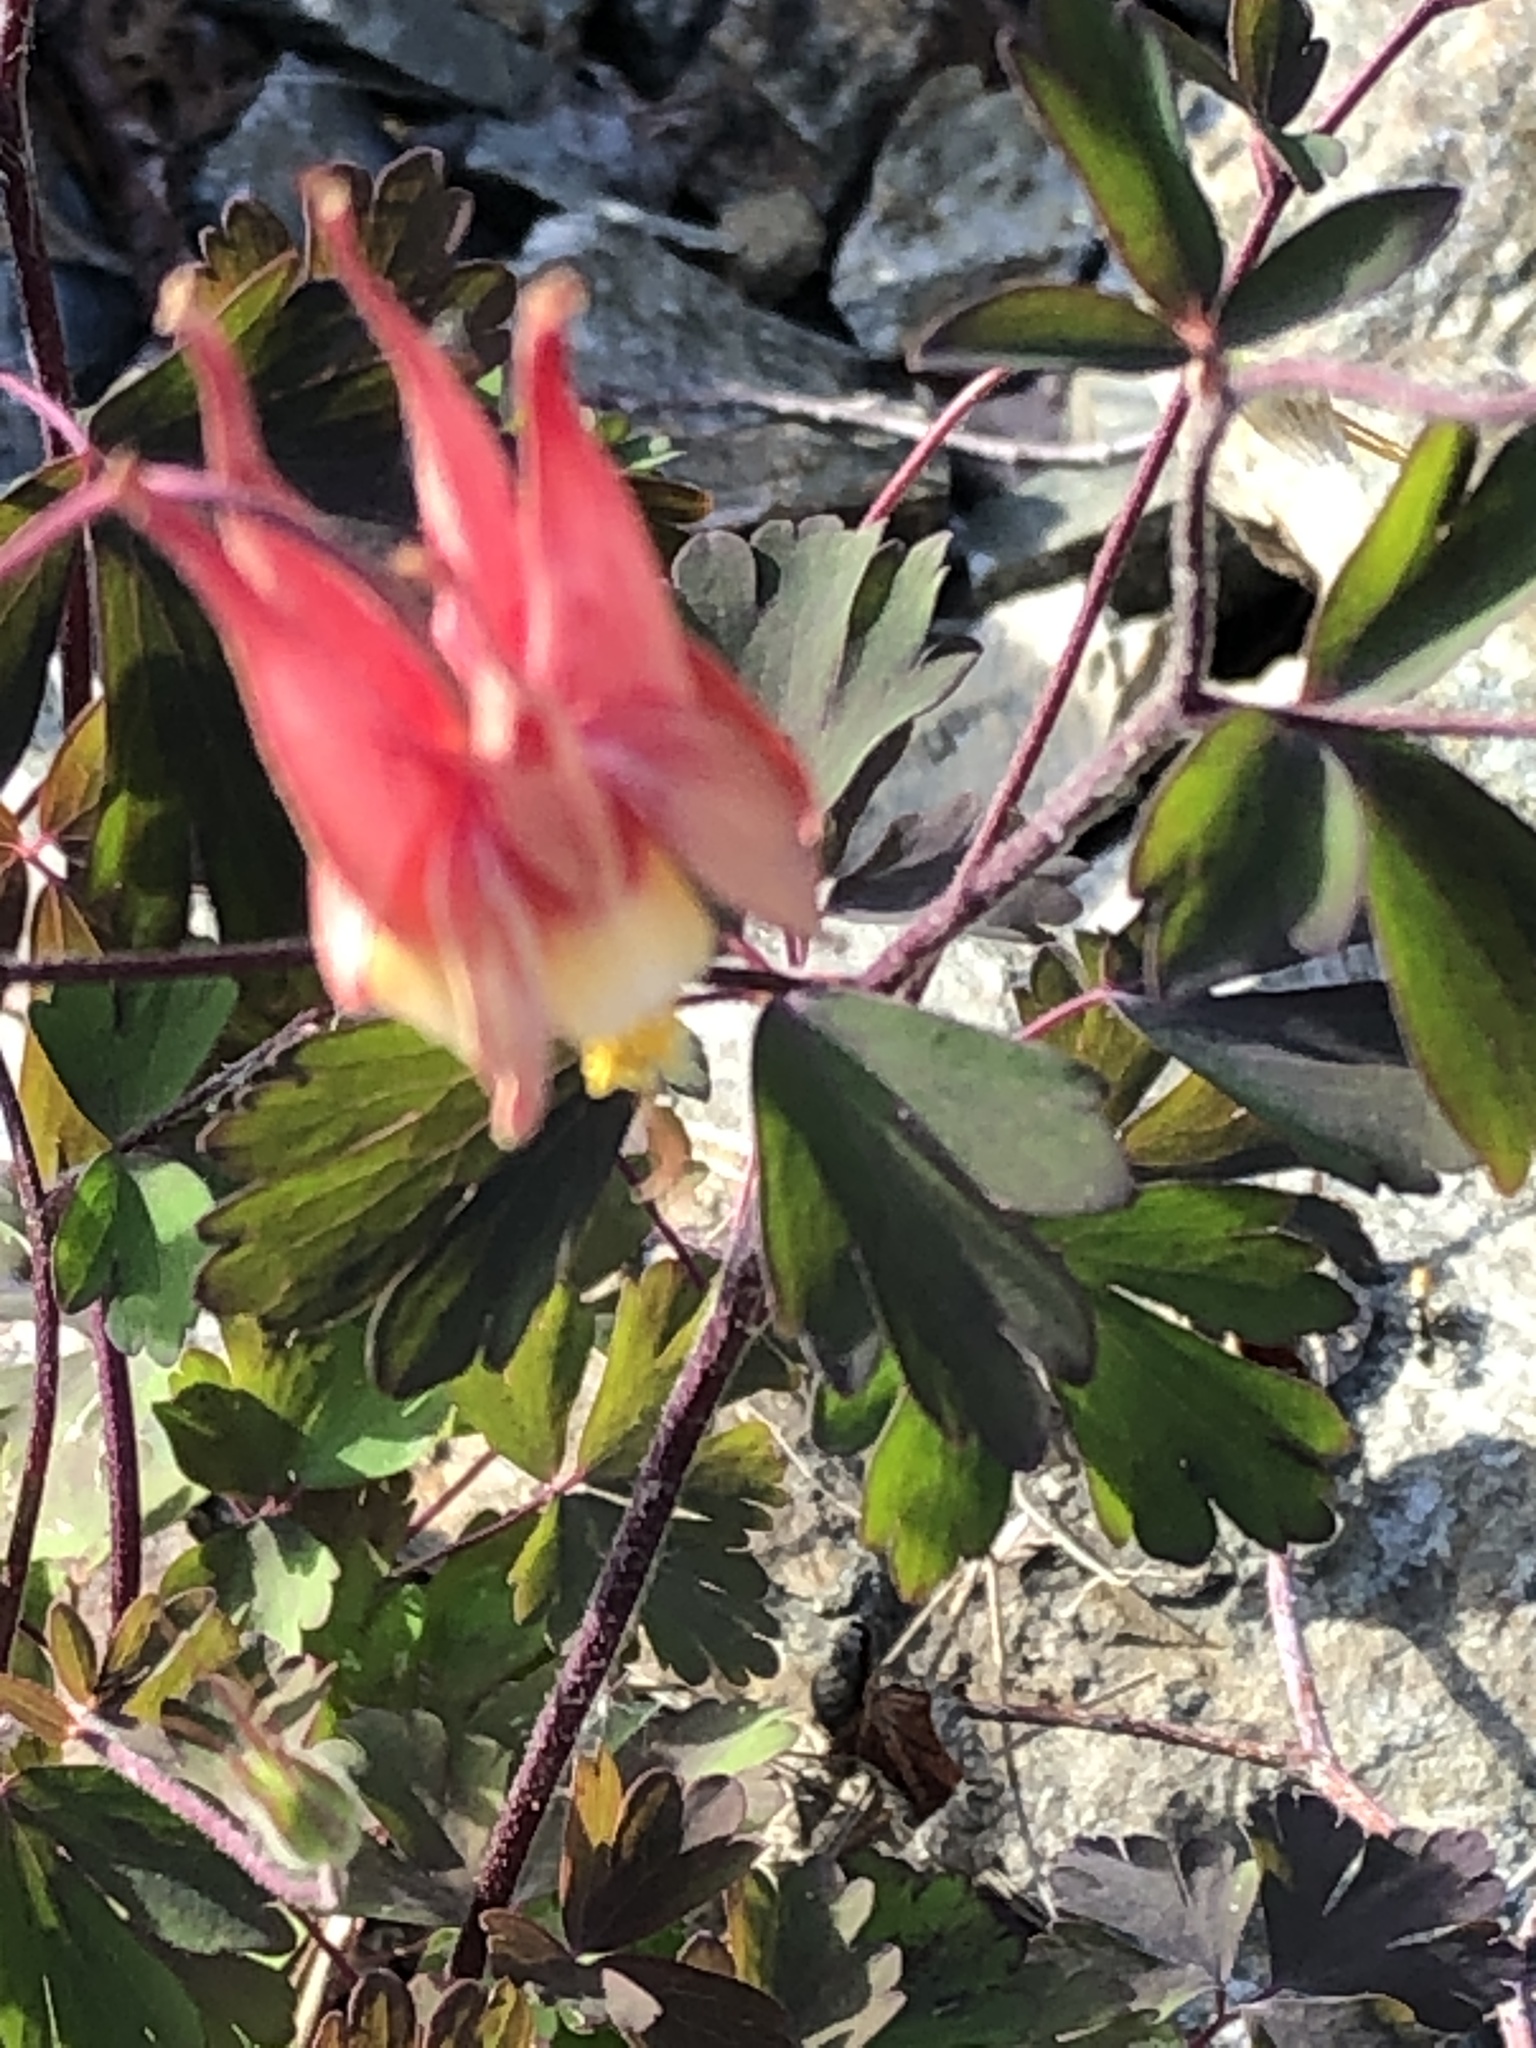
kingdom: Plantae
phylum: Tracheophyta
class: Magnoliopsida
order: Ranunculales
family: Ranunculaceae
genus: Aquilegia
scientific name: Aquilegia canadensis
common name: American columbine
